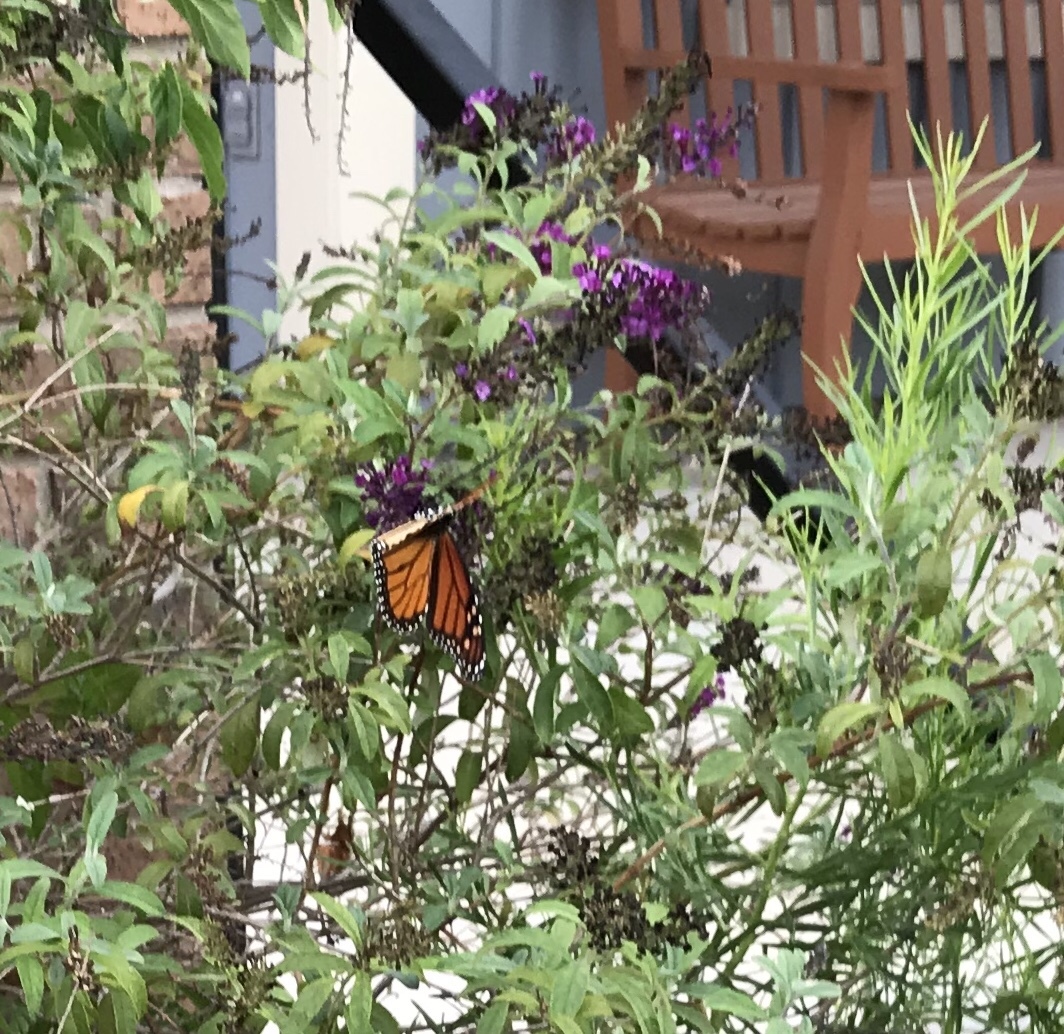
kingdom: Animalia
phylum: Arthropoda
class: Insecta
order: Lepidoptera
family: Nymphalidae
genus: Danaus
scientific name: Danaus plexippus
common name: Monarch
